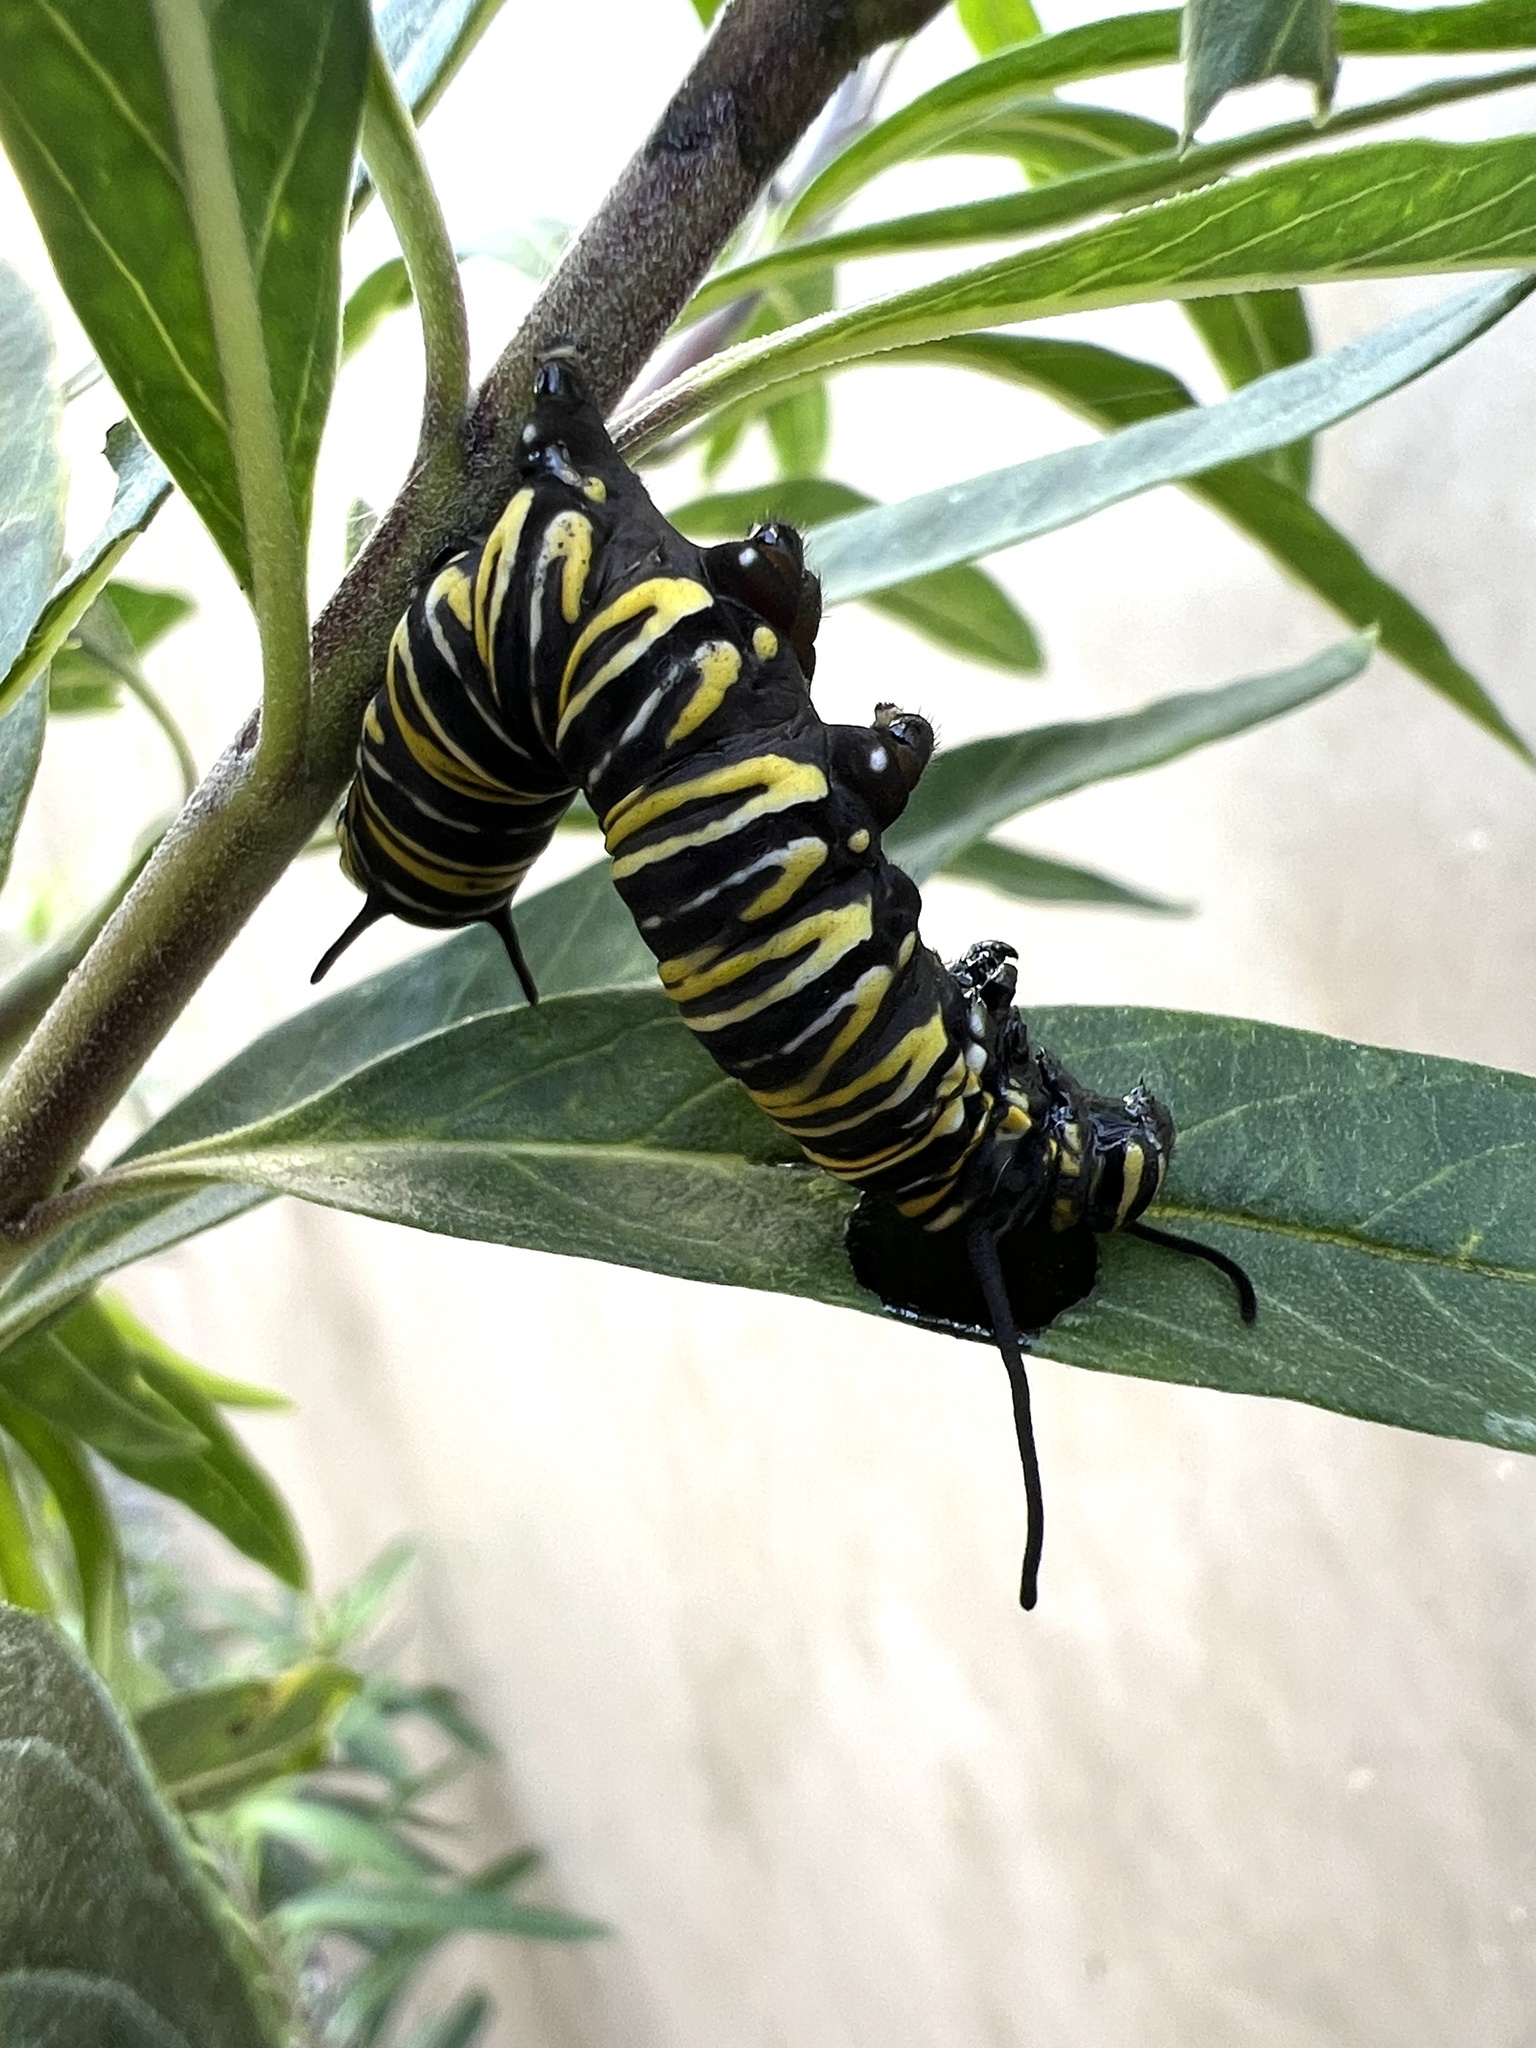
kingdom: Animalia
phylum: Arthropoda
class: Insecta
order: Lepidoptera
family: Nymphalidae
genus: Danaus
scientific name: Danaus plexippus
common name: Monarch
